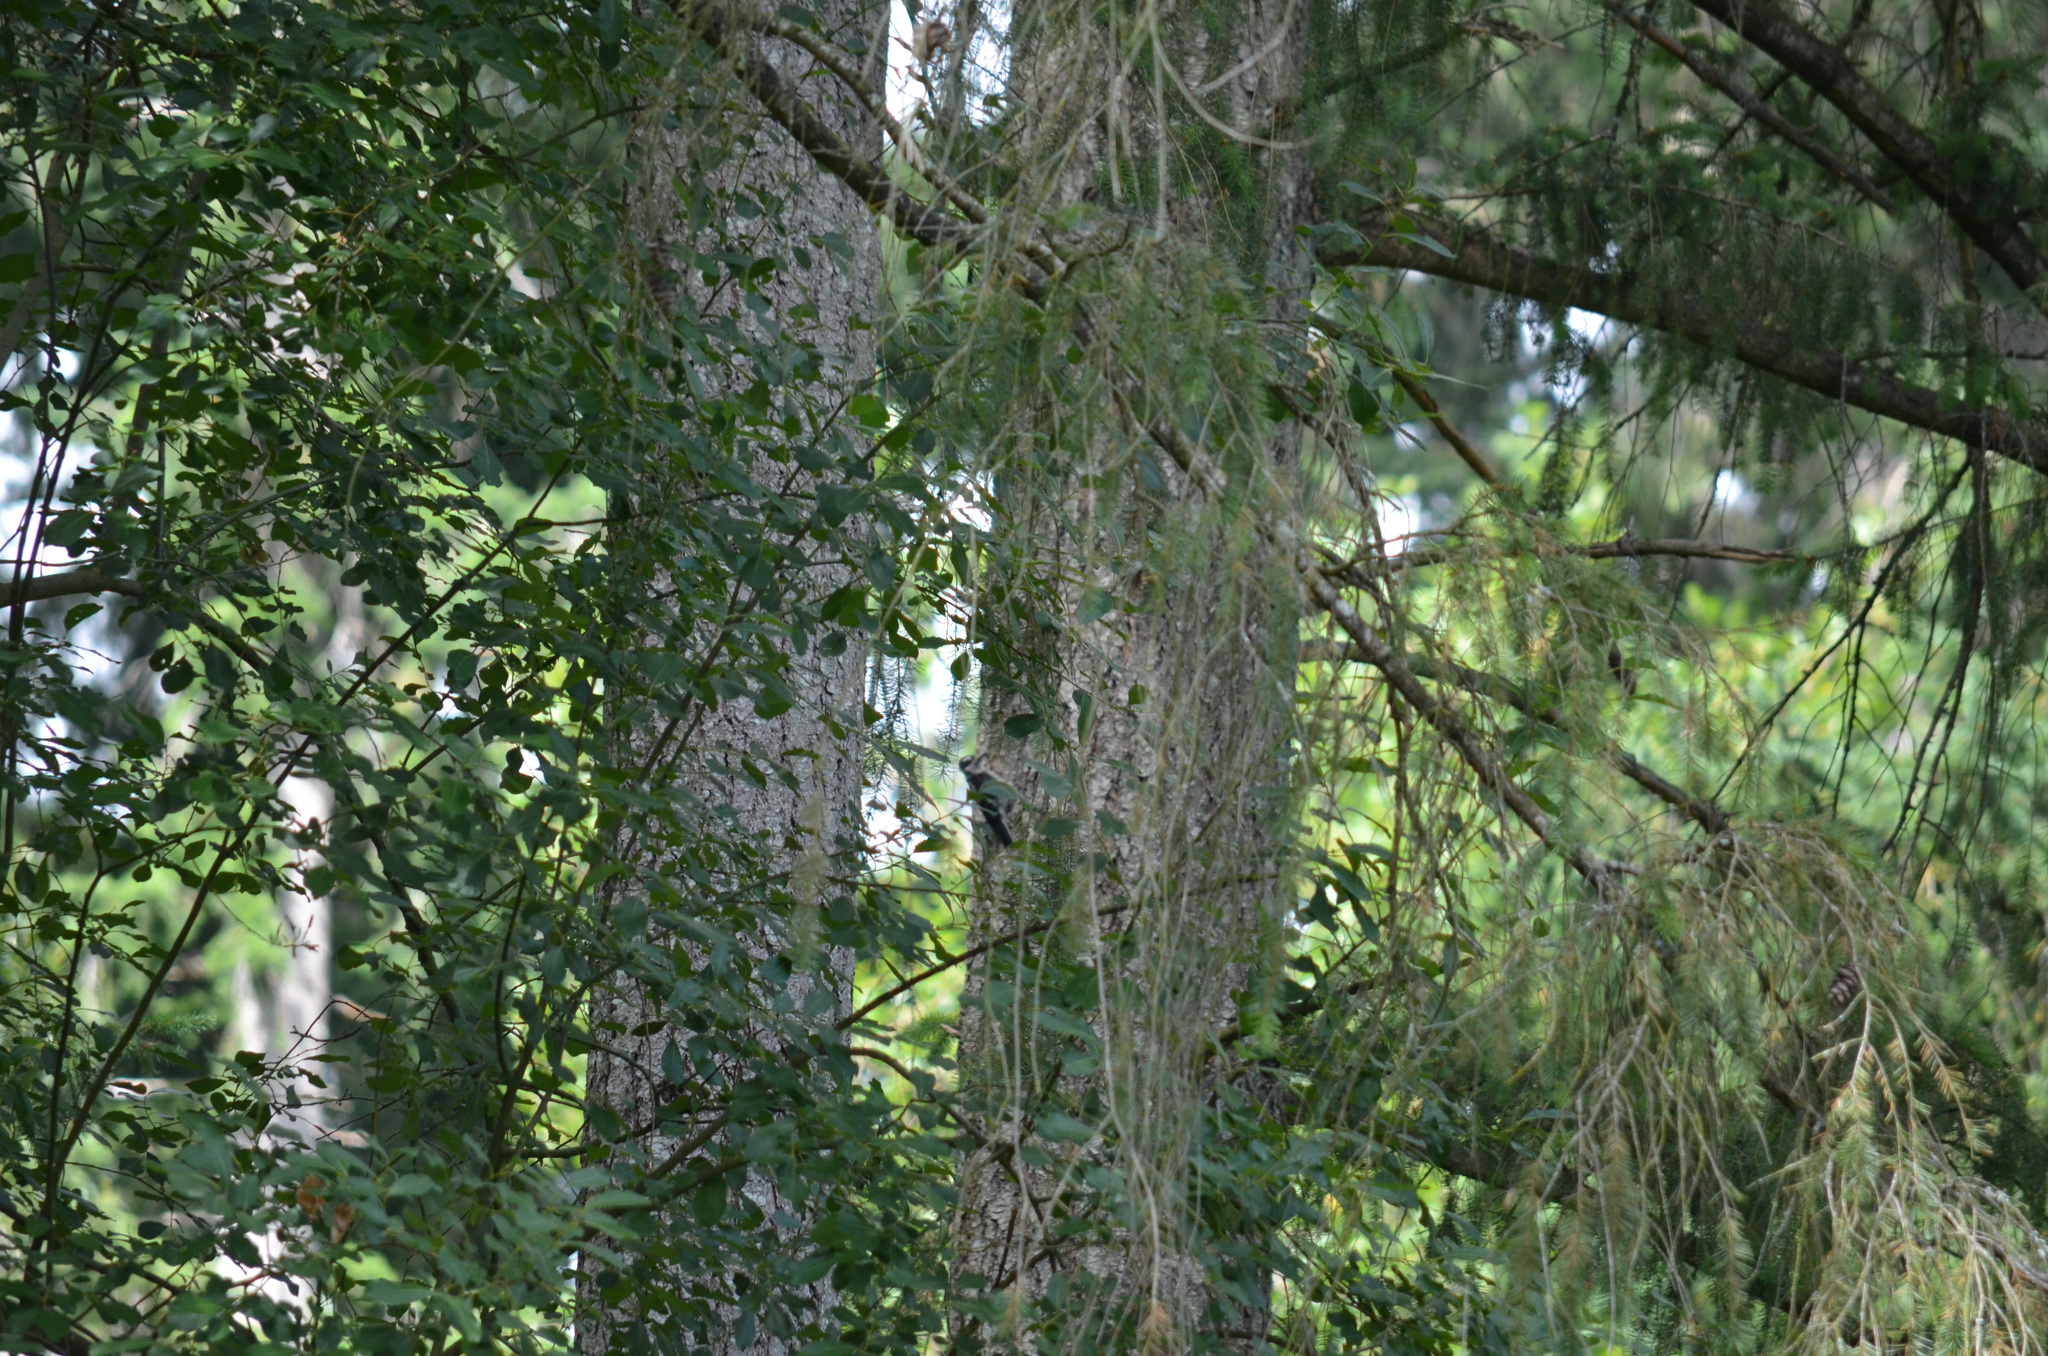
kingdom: Animalia
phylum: Chordata
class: Aves
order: Piciformes
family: Picidae
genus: Dryobates
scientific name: Dryobates pubescens
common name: Downy woodpecker
